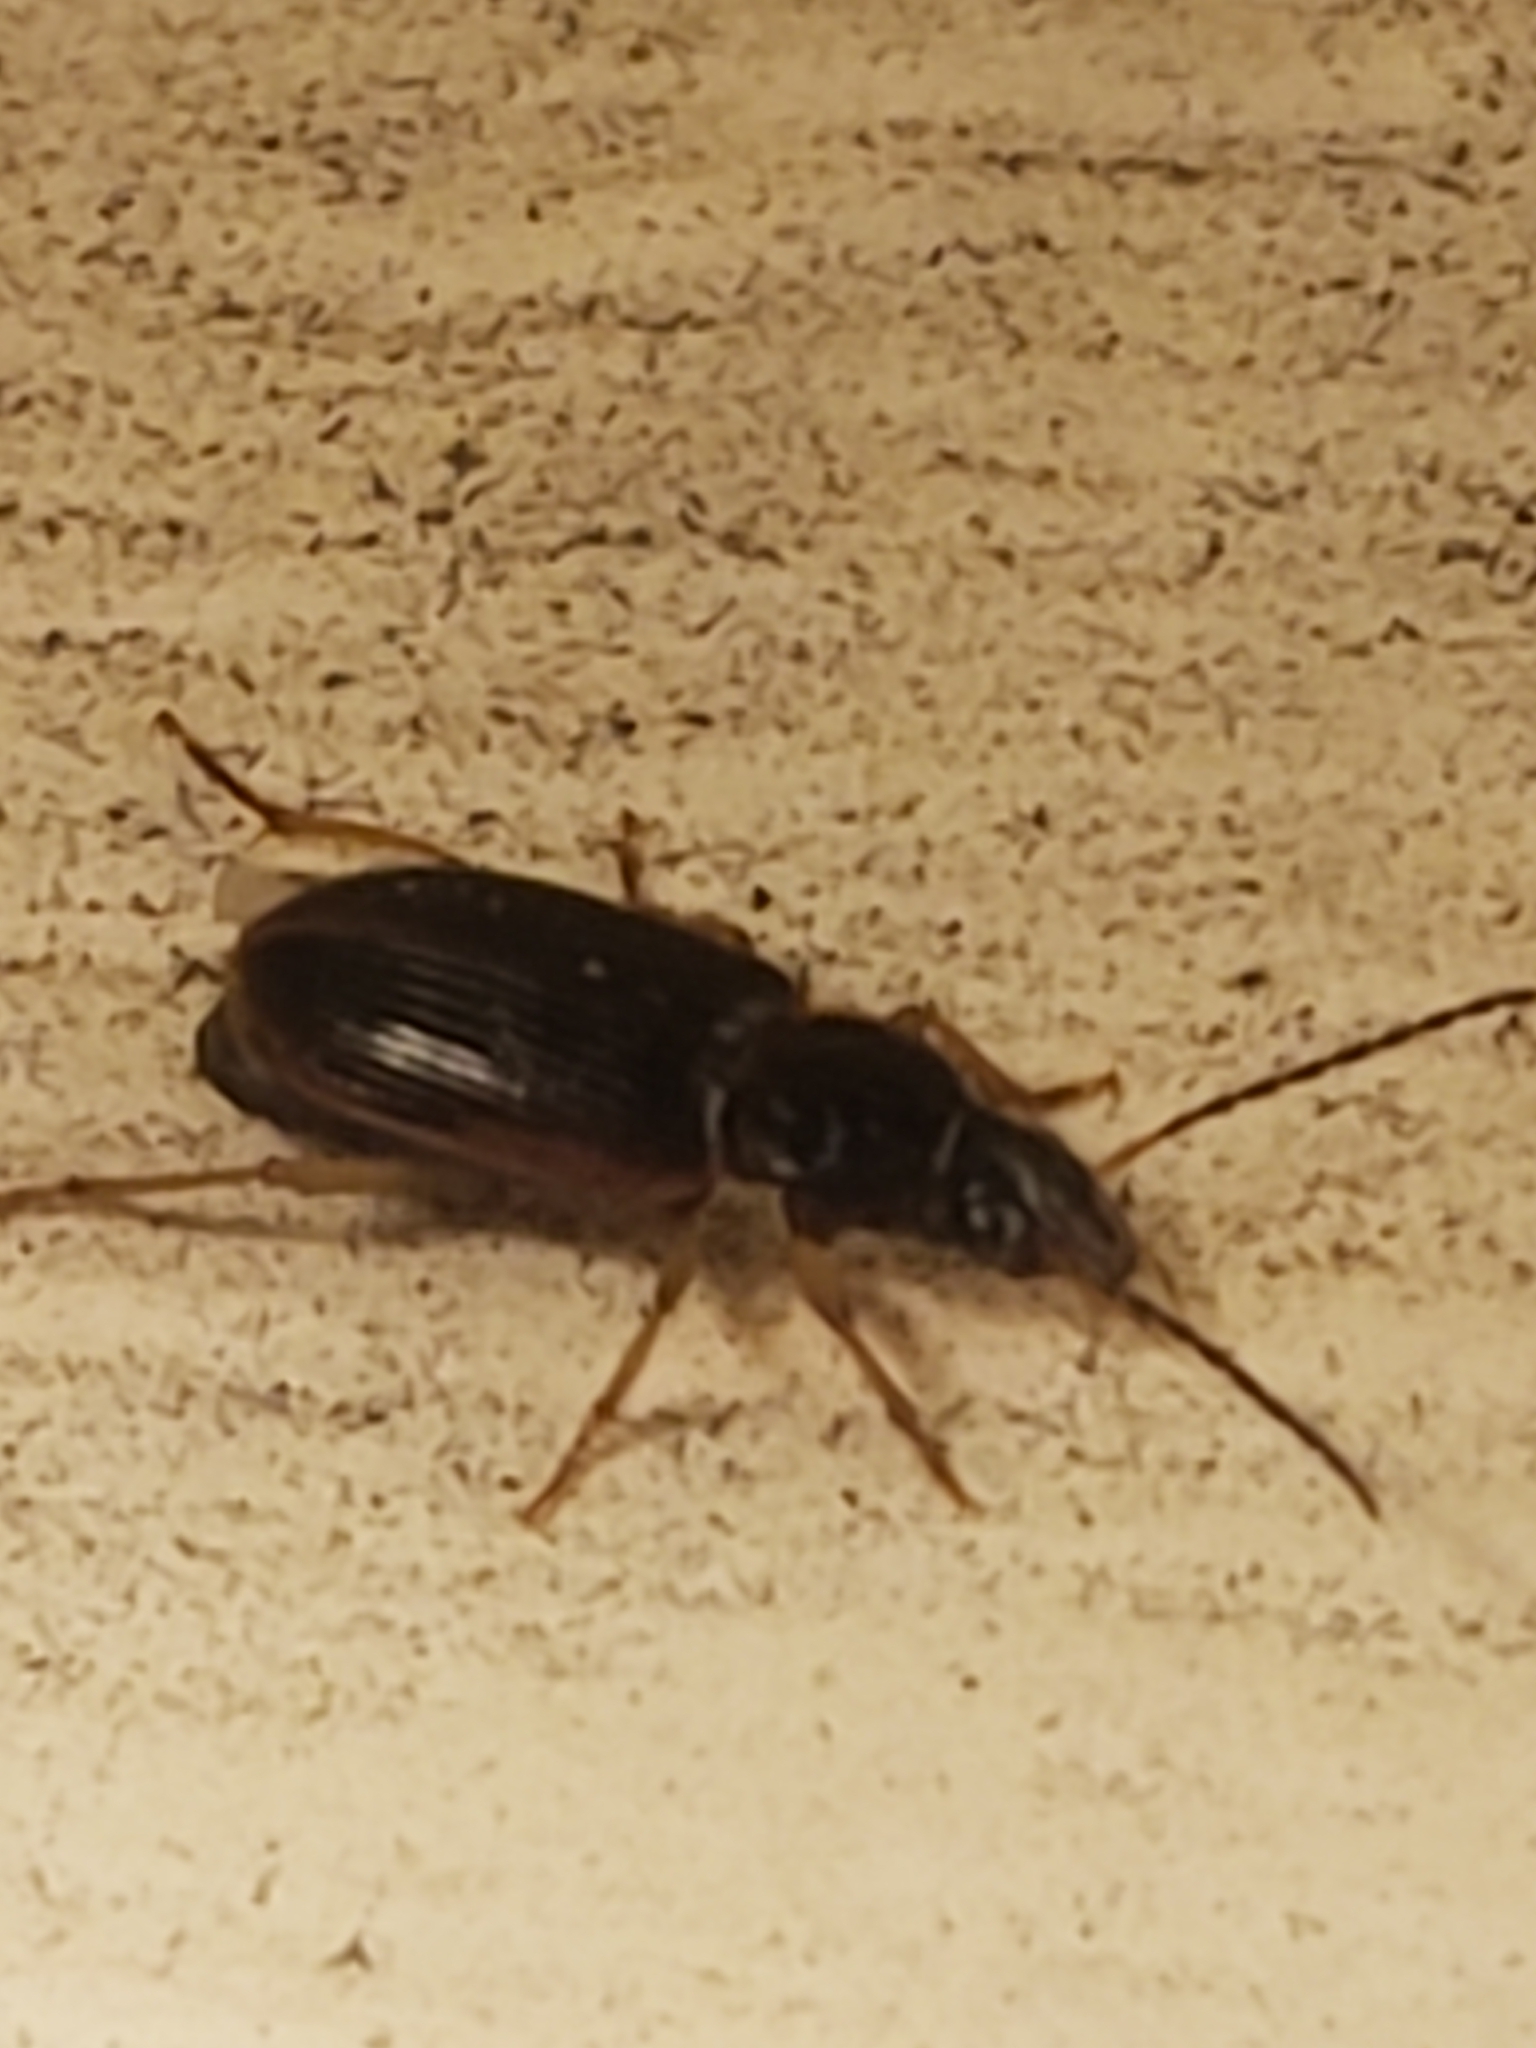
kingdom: Animalia
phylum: Arthropoda
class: Insecta
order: Coleoptera
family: Carabidae
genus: Stenolophus
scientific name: Stenolophus ochropezus
